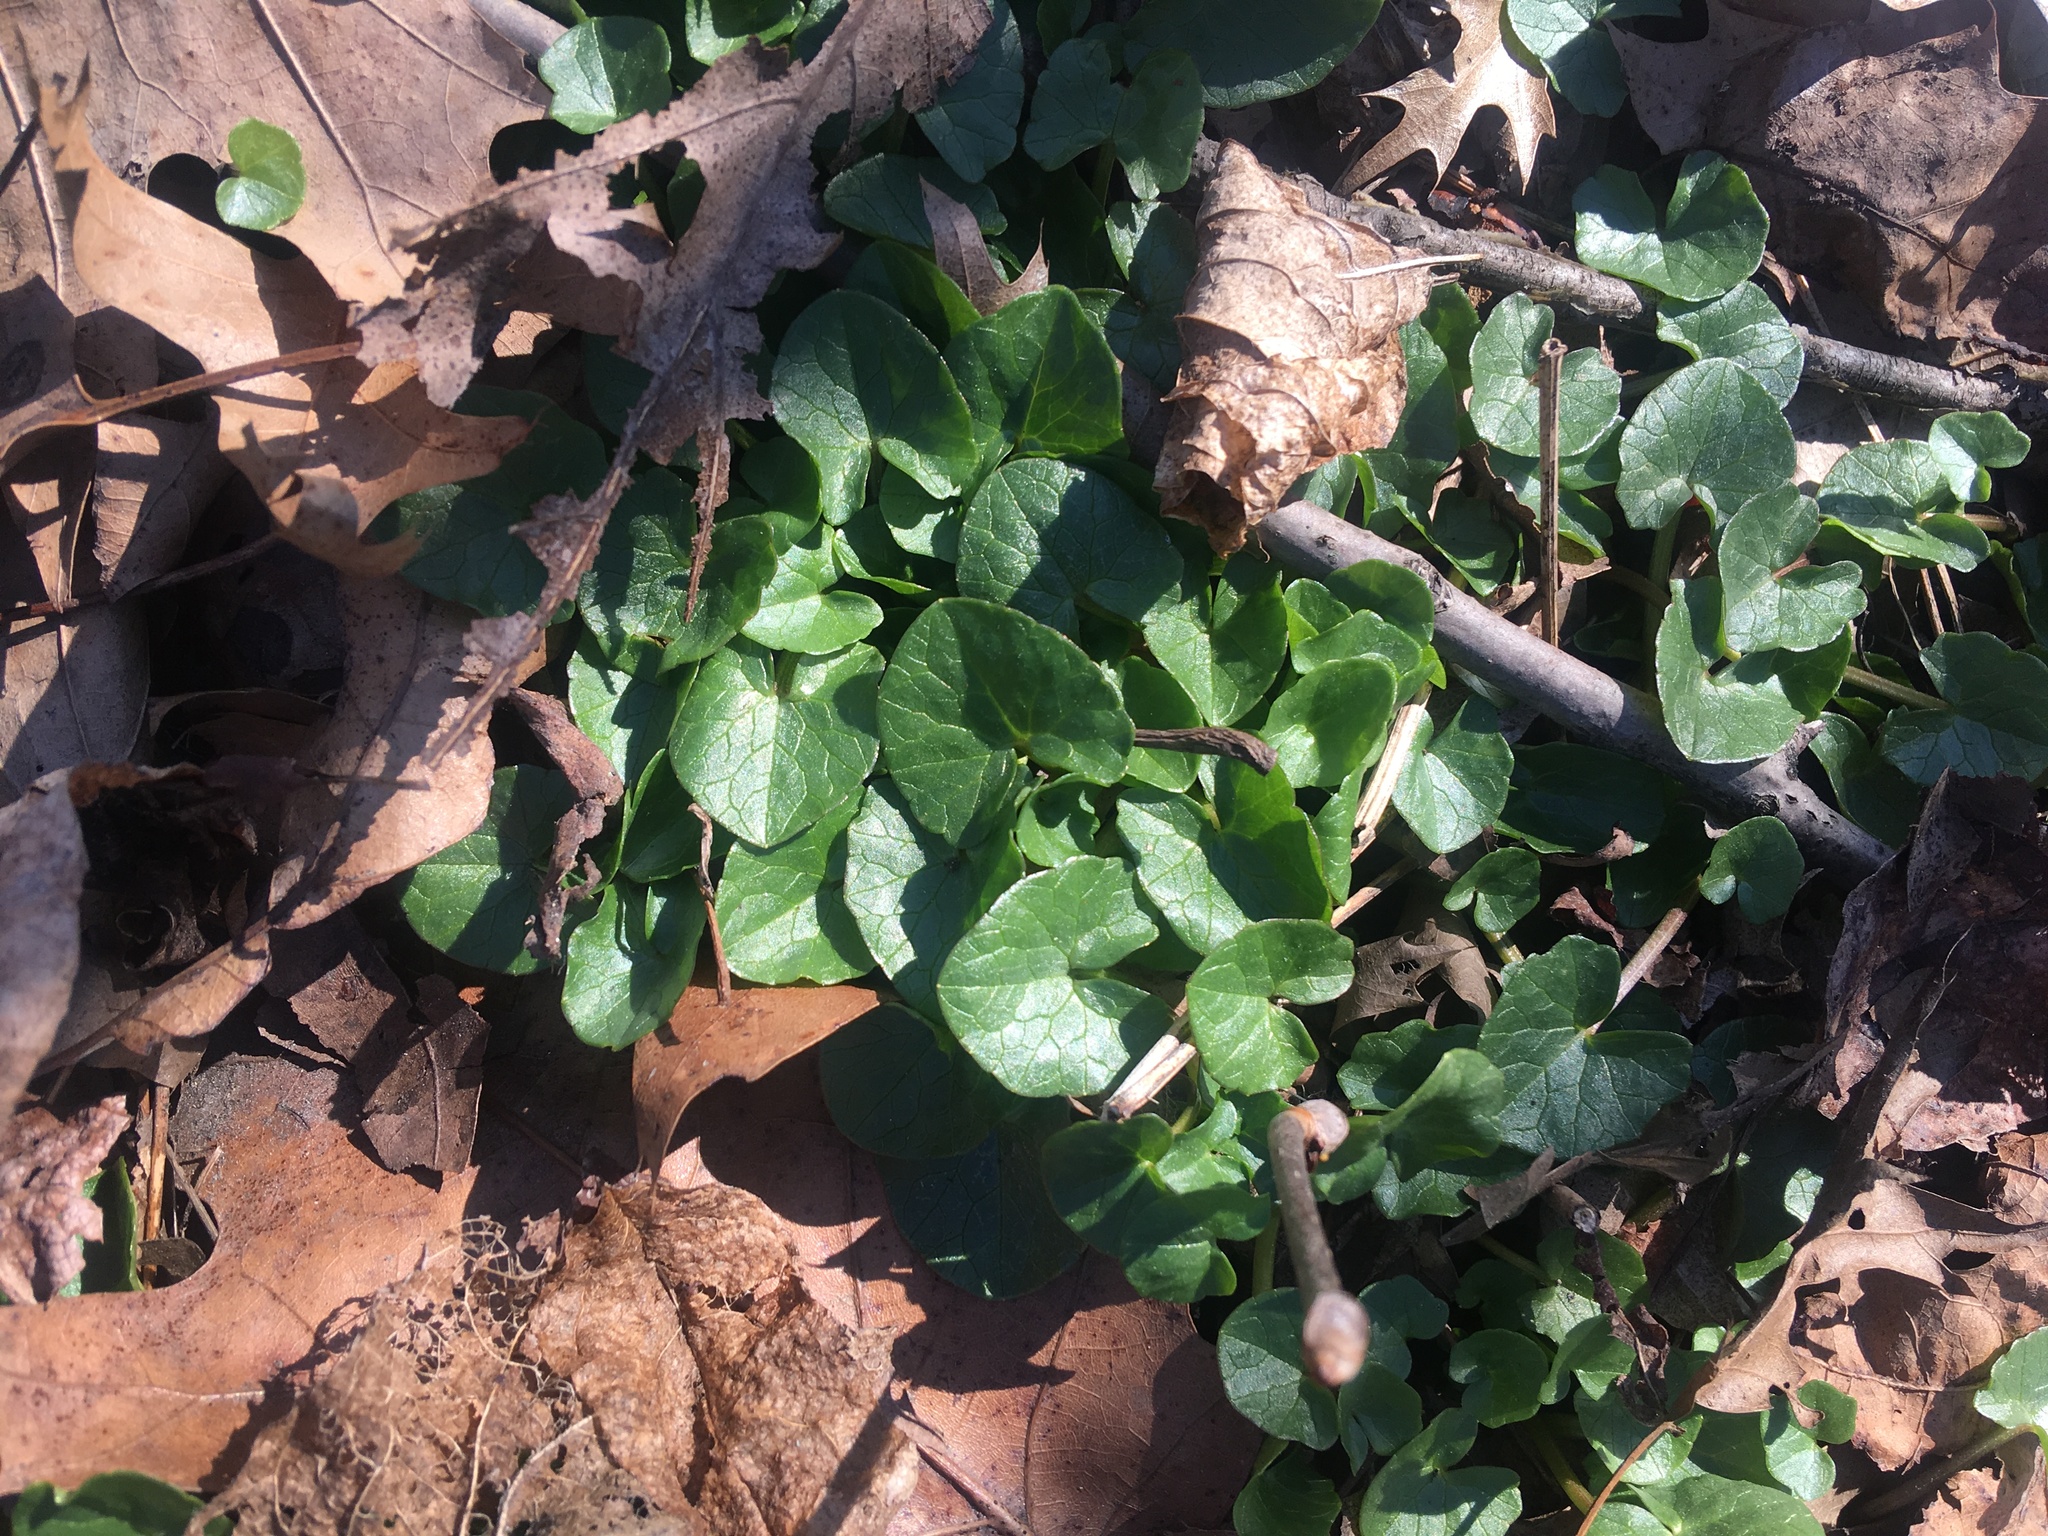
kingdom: Plantae
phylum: Tracheophyta
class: Magnoliopsida
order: Ranunculales
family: Ranunculaceae
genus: Ficaria
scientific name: Ficaria verna
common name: Lesser celandine
